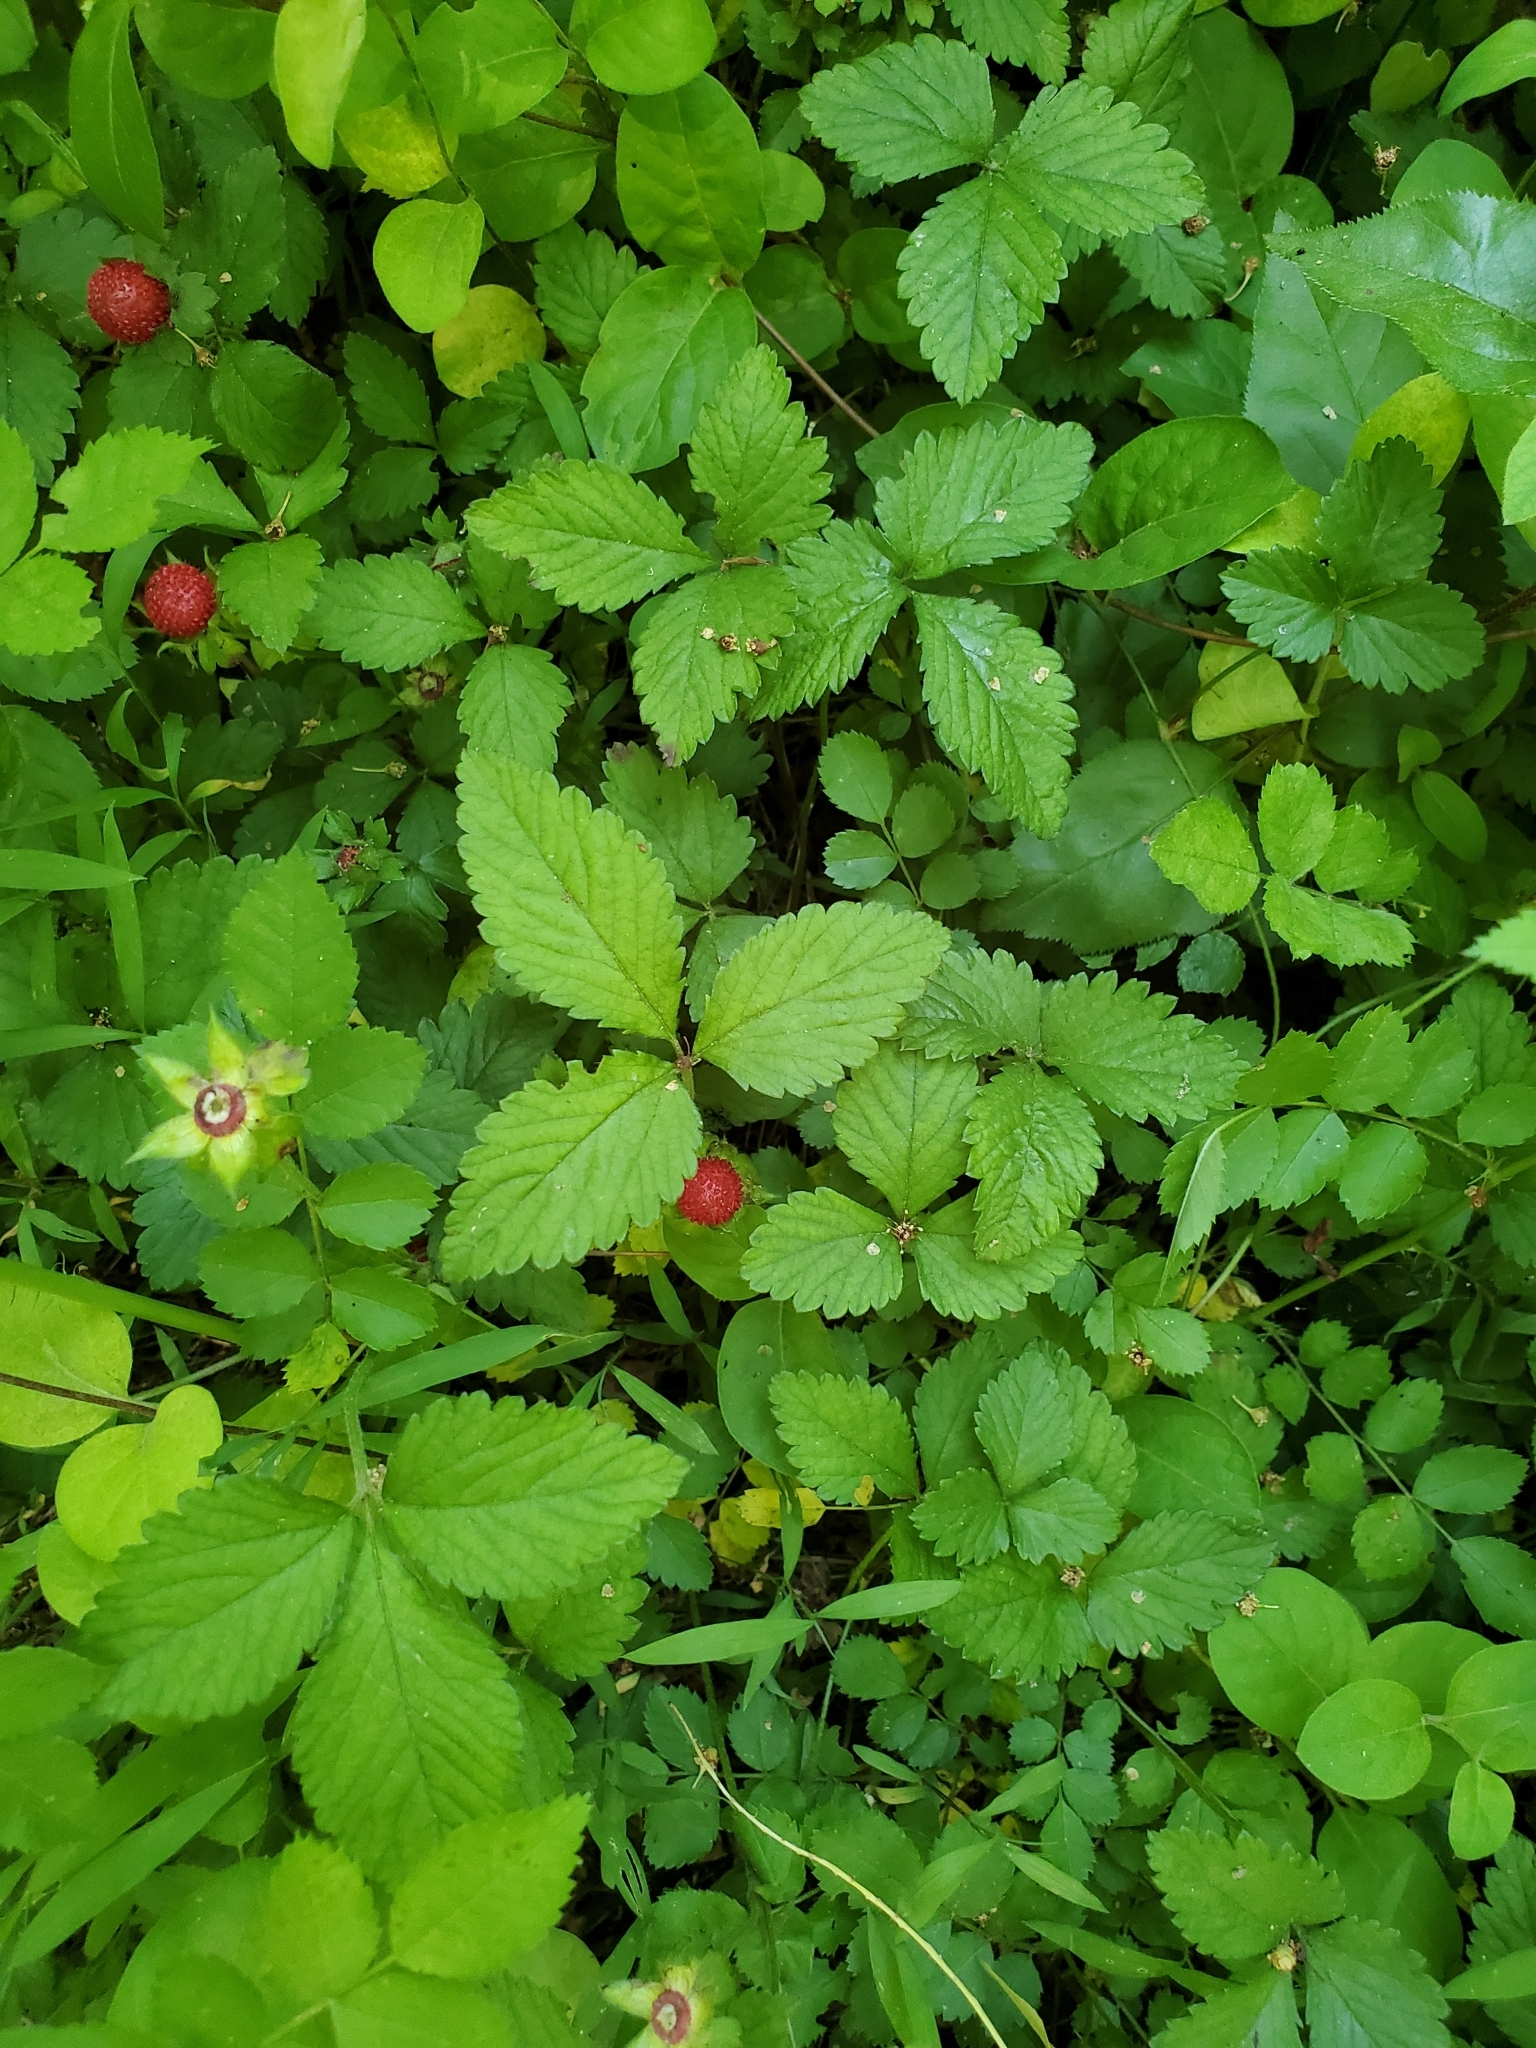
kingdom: Plantae
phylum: Tracheophyta
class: Magnoliopsida
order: Rosales
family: Rosaceae
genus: Potentilla
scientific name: Potentilla indica
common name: Yellow-flowered strawberry
